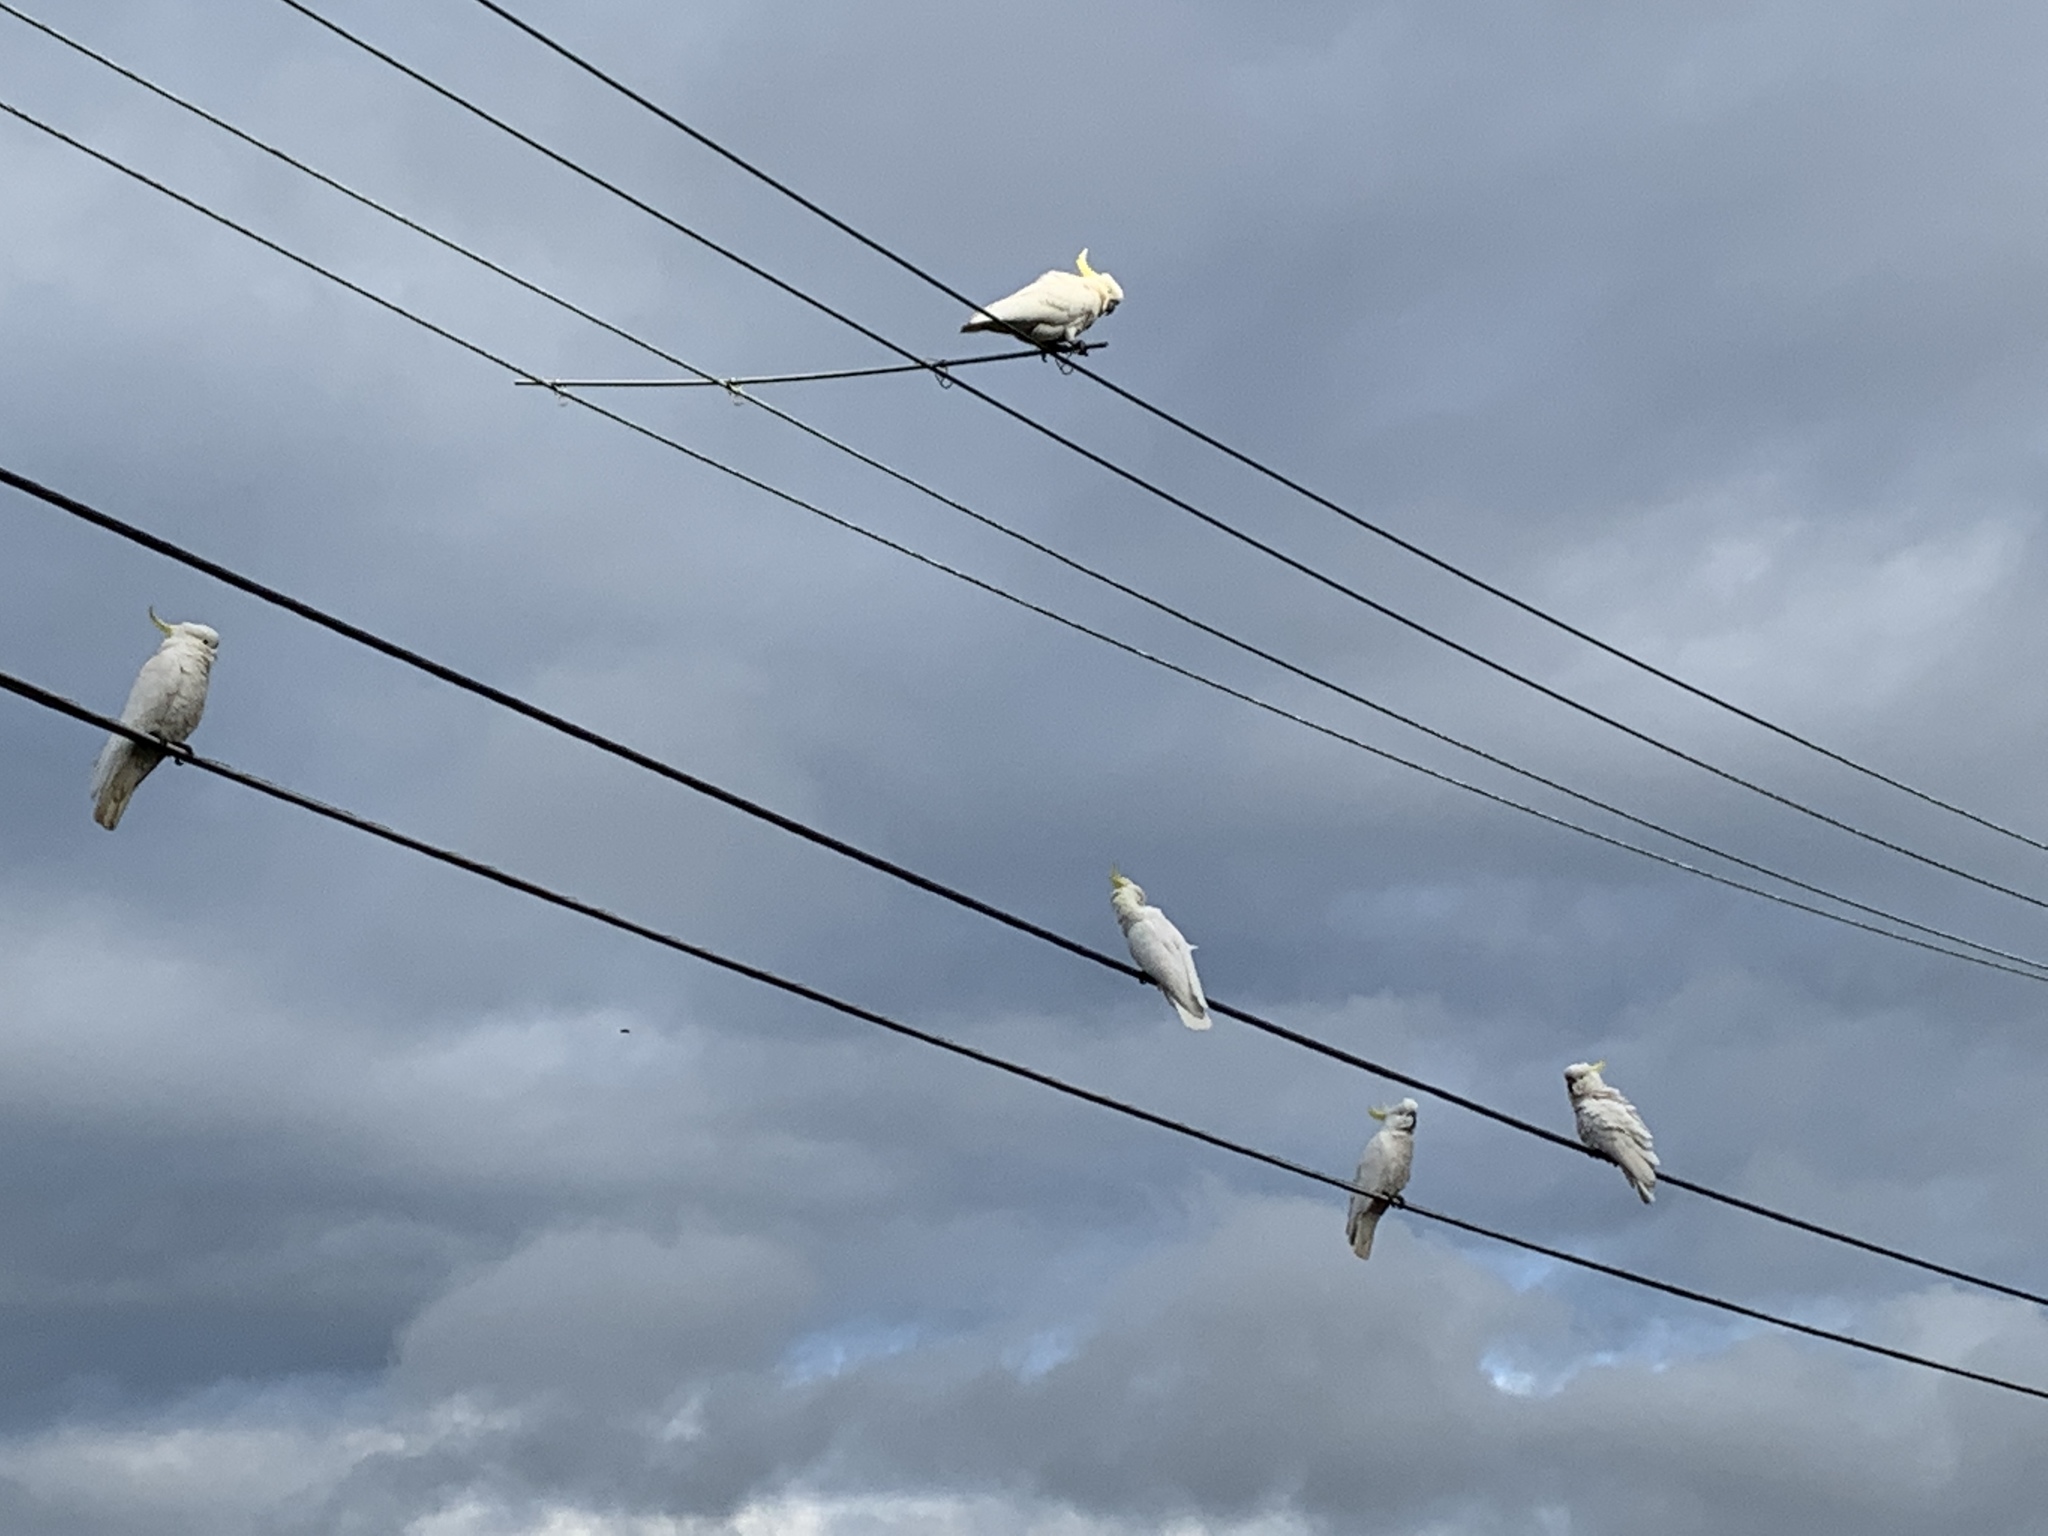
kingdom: Animalia
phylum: Chordata
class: Aves
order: Psittaciformes
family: Psittacidae
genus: Cacatua
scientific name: Cacatua galerita
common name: Sulphur-crested cockatoo
